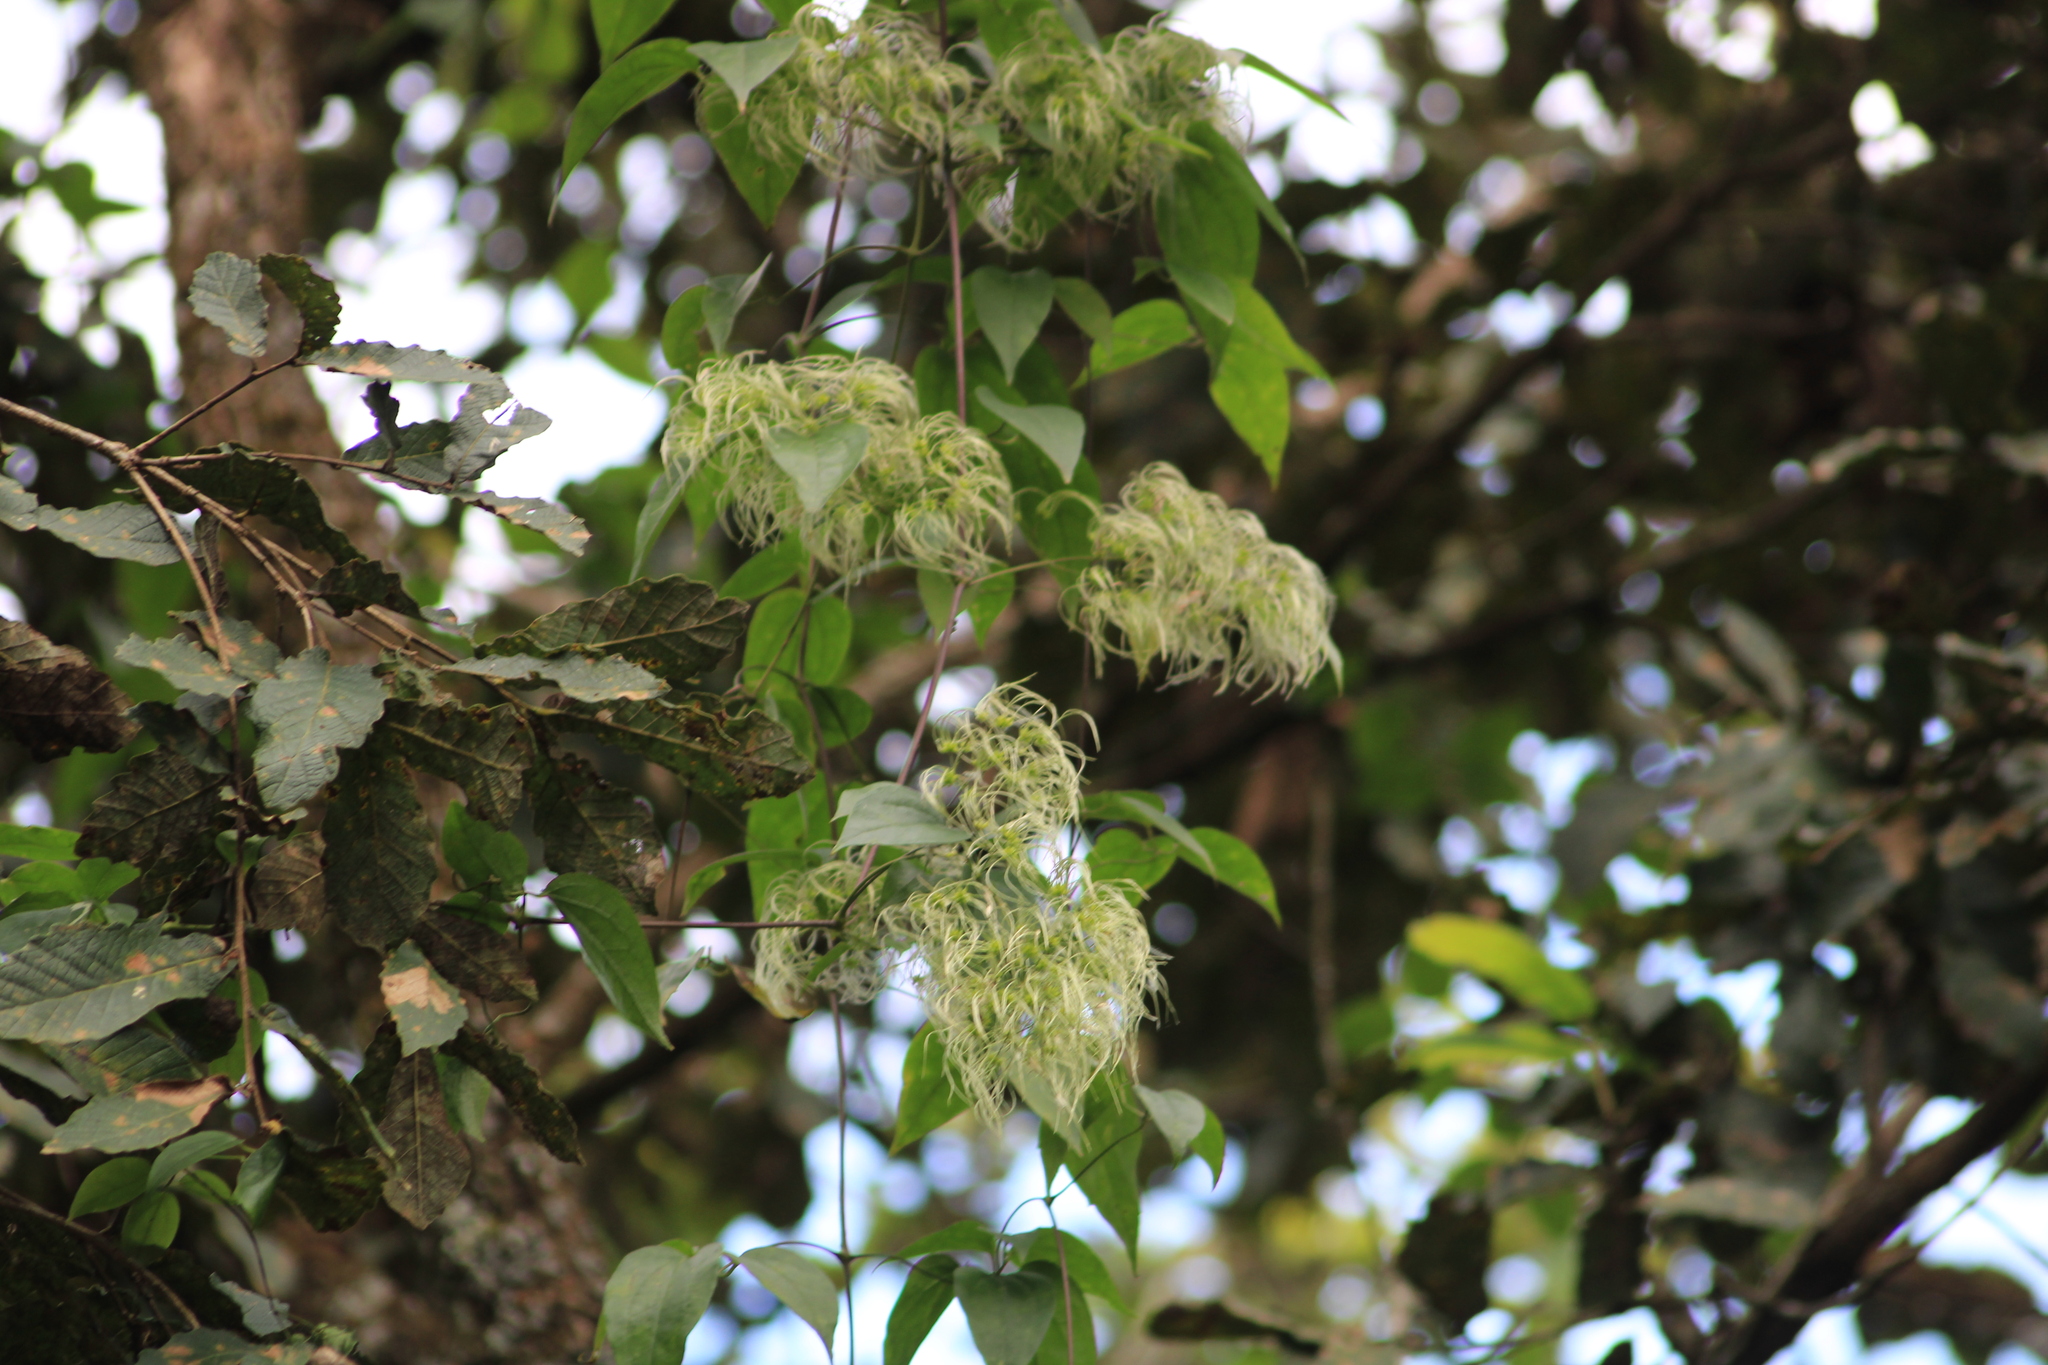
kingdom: Plantae
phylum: Tracheophyta
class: Magnoliopsida
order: Ranunculales
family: Ranunculaceae
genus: Clematis
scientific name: Clematis dioica
